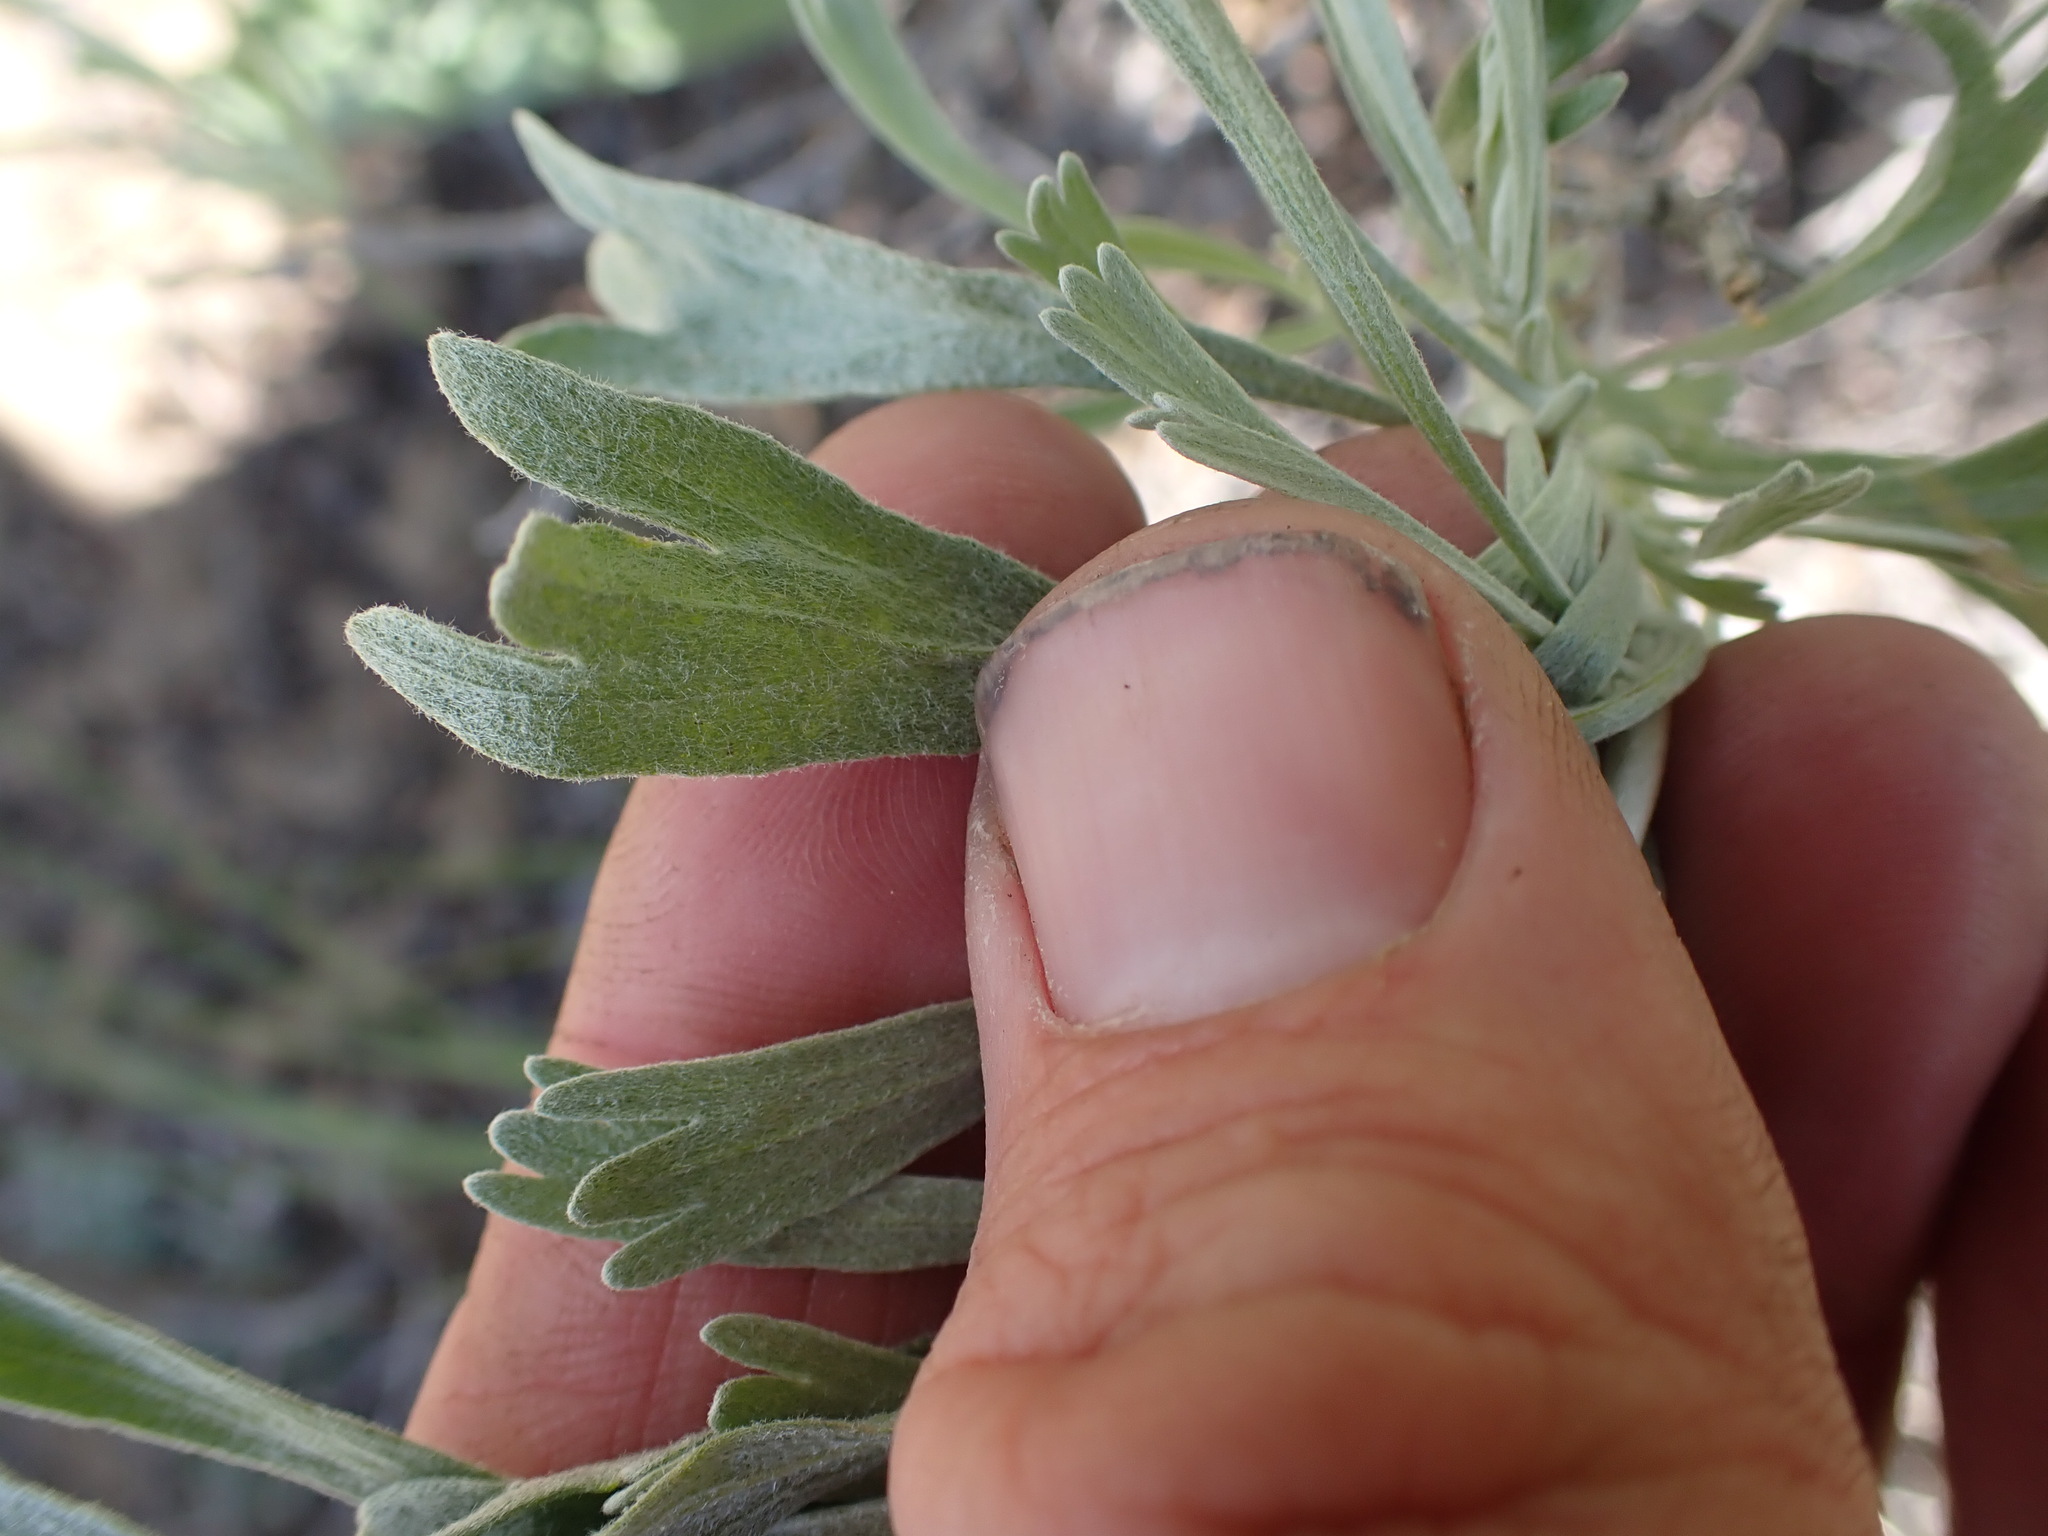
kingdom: Plantae
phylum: Tracheophyta
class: Magnoliopsida
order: Asterales
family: Asteraceae
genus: Artemisia
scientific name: Artemisia tridentata
